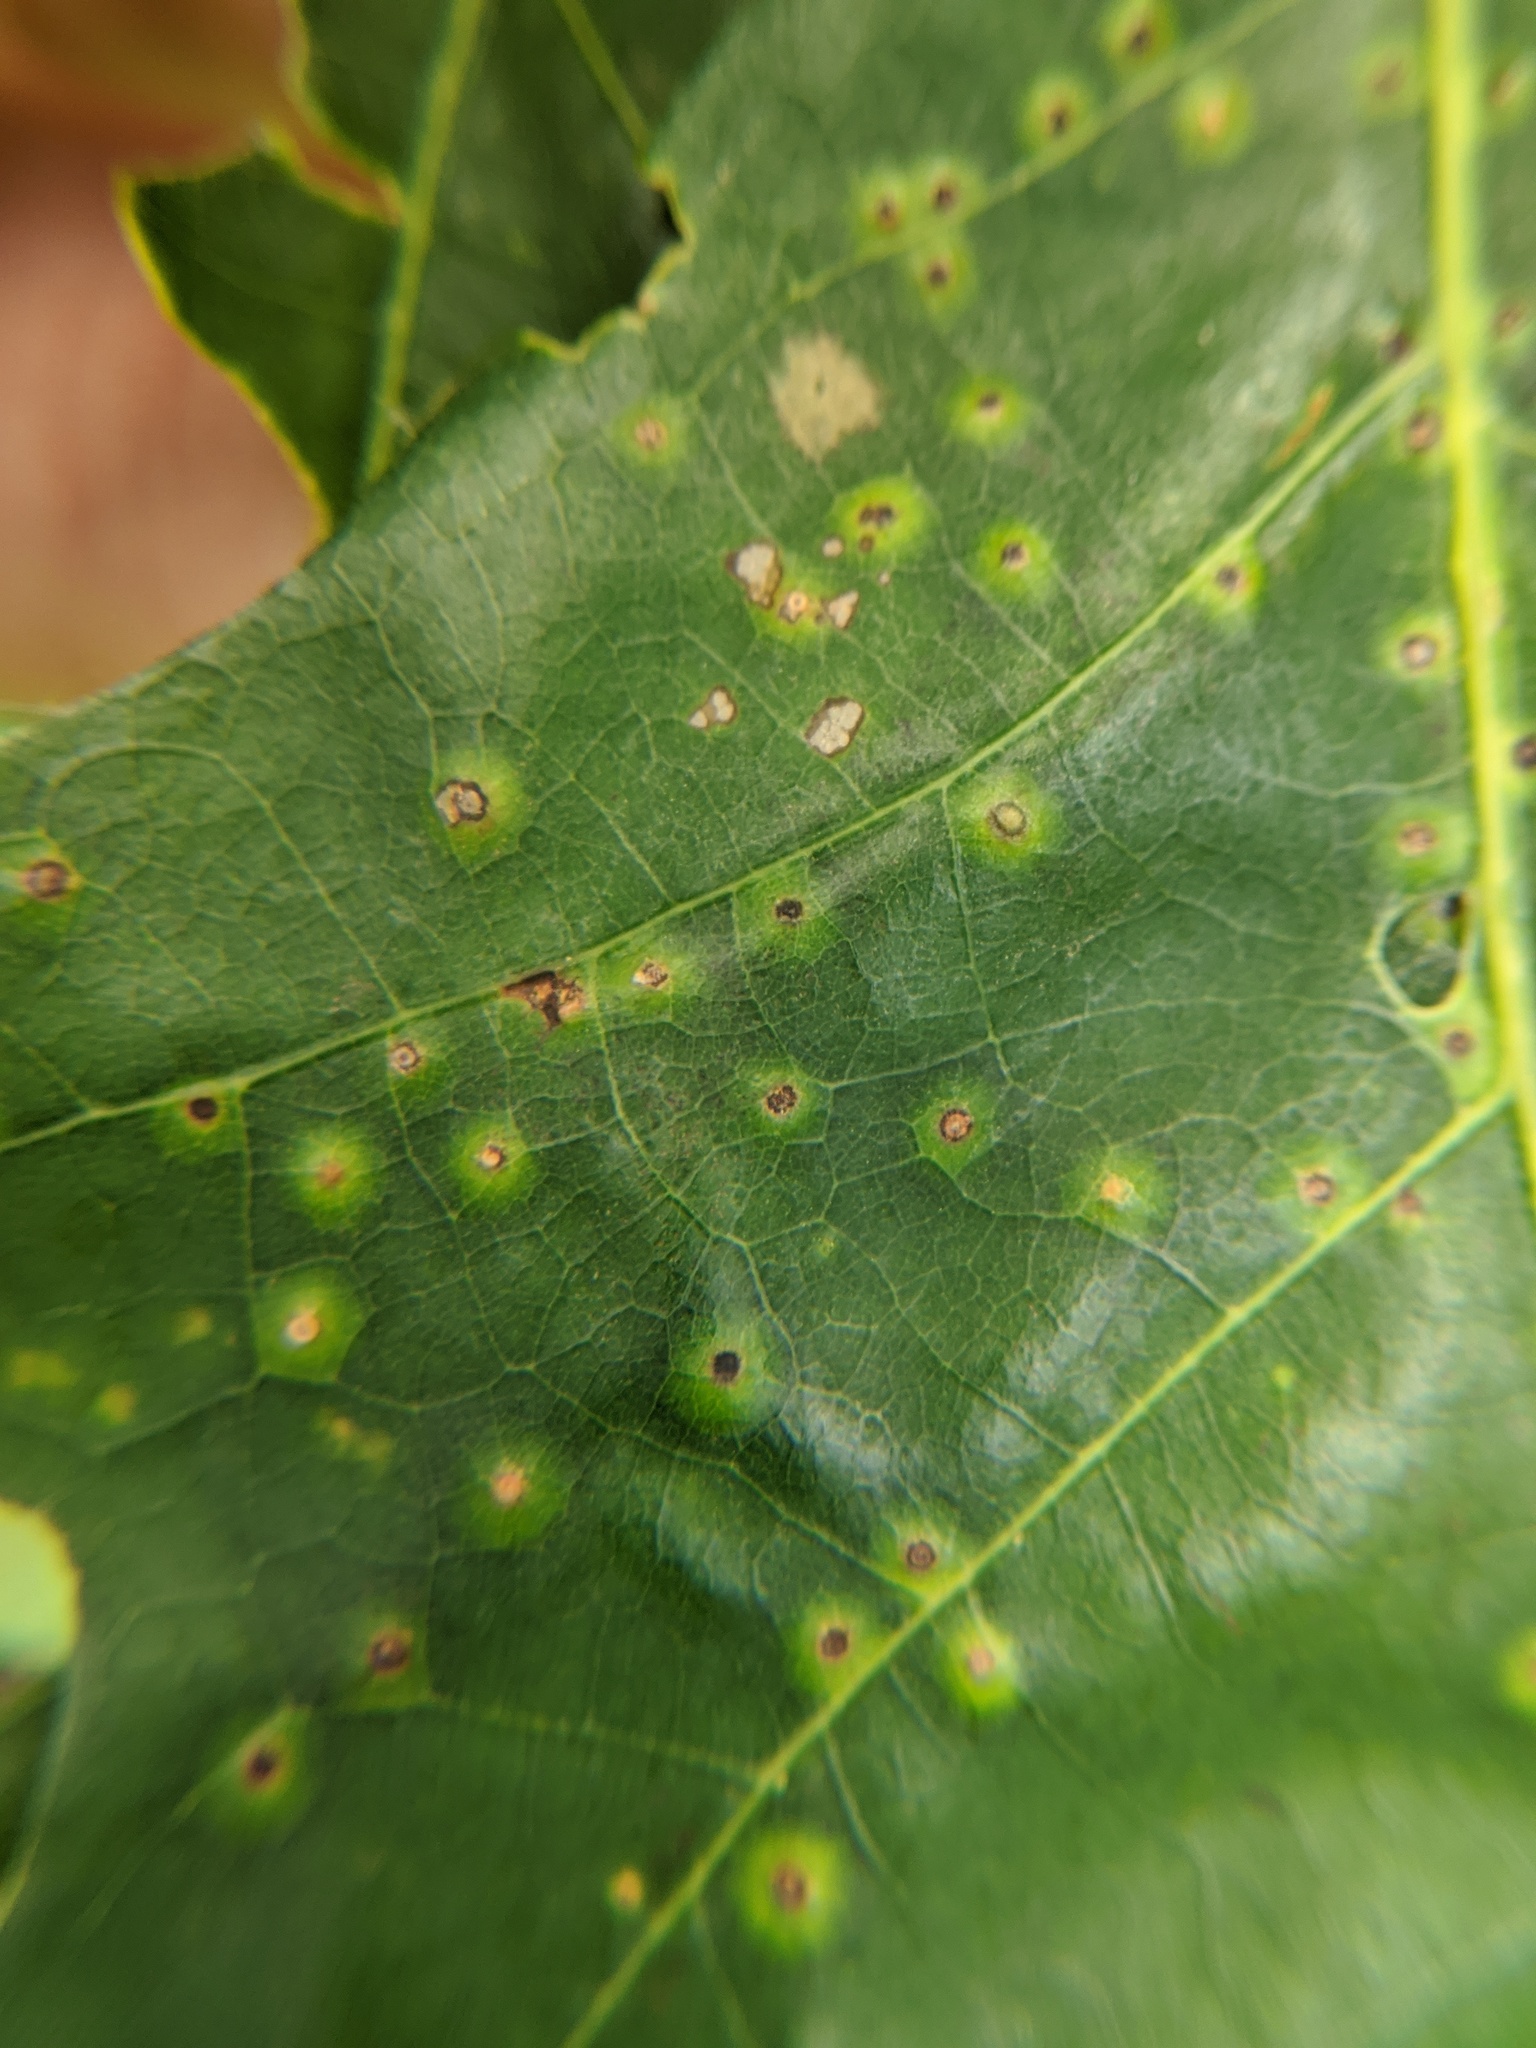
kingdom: Animalia
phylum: Arthropoda
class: Insecta
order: Hymenoptera
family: Cynipidae
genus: Neuroterus
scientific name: Neuroterus
